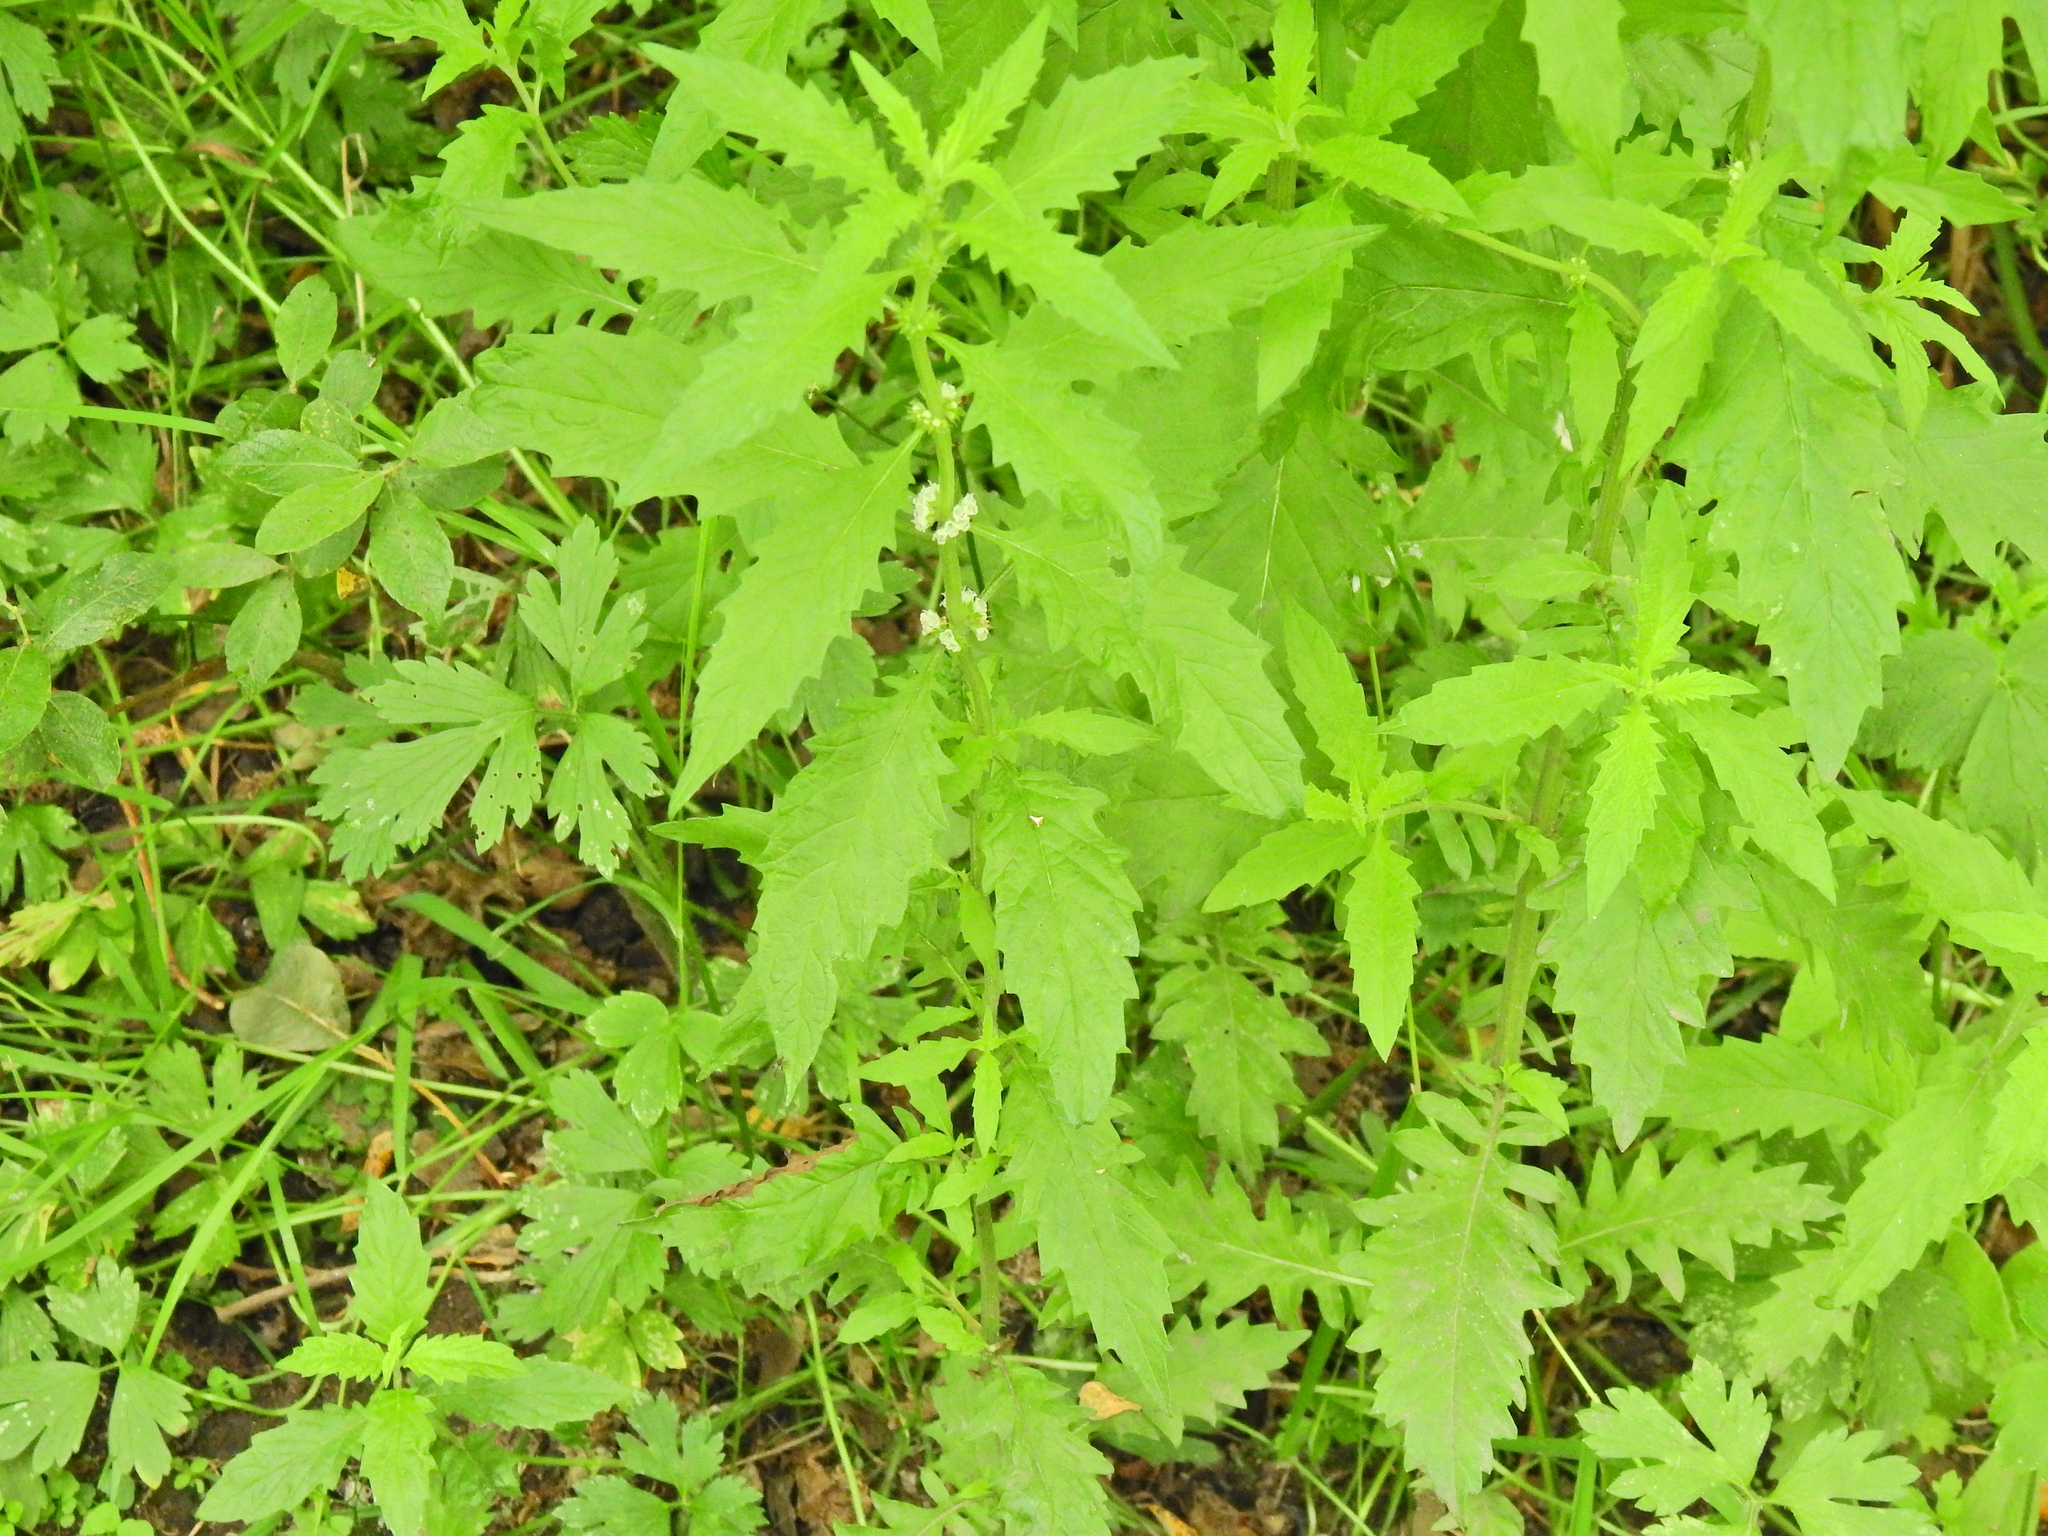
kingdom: Plantae
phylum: Tracheophyta
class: Magnoliopsida
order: Lamiales
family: Lamiaceae
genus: Lycopus
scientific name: Lycopus europaeus
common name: European bugleweed
